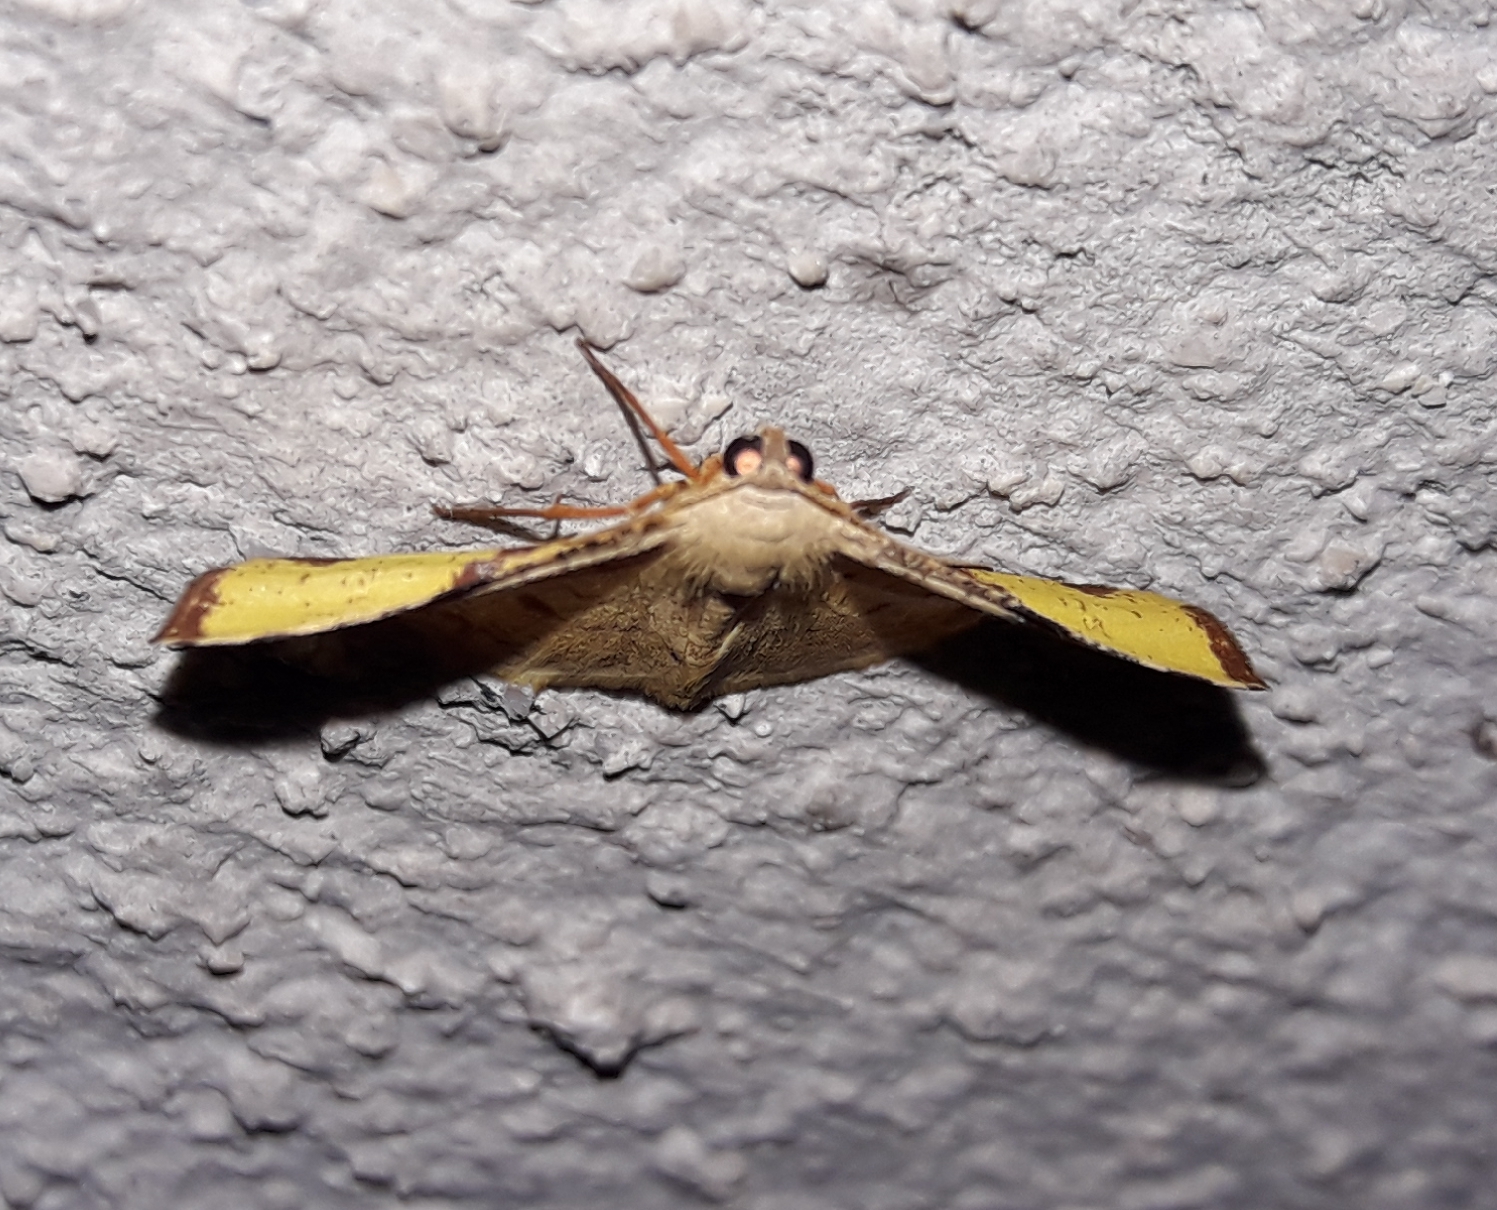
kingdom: Animalia
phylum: Arthropoda
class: Insecta
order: Lepidoptera
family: Geometridae
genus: Pyrinia
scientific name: Pyrinia selecta
